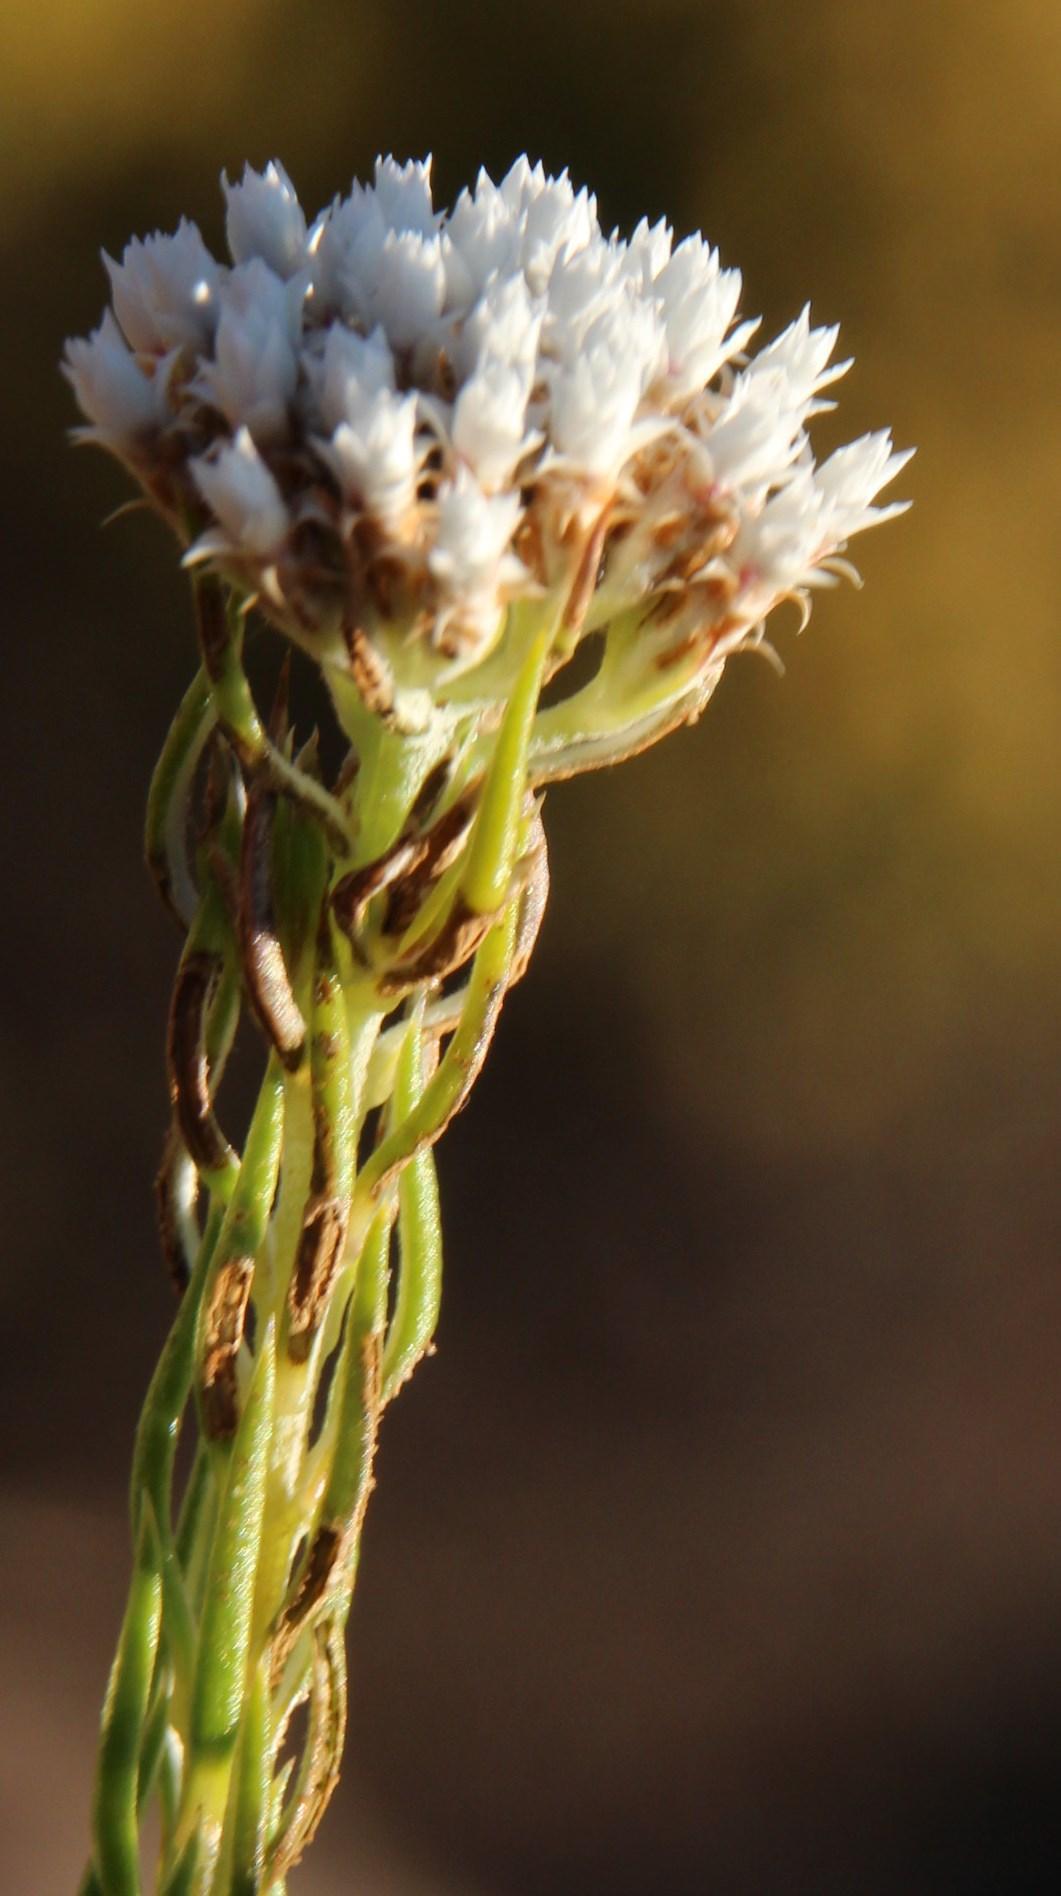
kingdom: Plantae
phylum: Tracheophyta
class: Magnoliopsida
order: Asterales
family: Asteraceae
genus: Metalasia
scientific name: Metalasia galpinii
